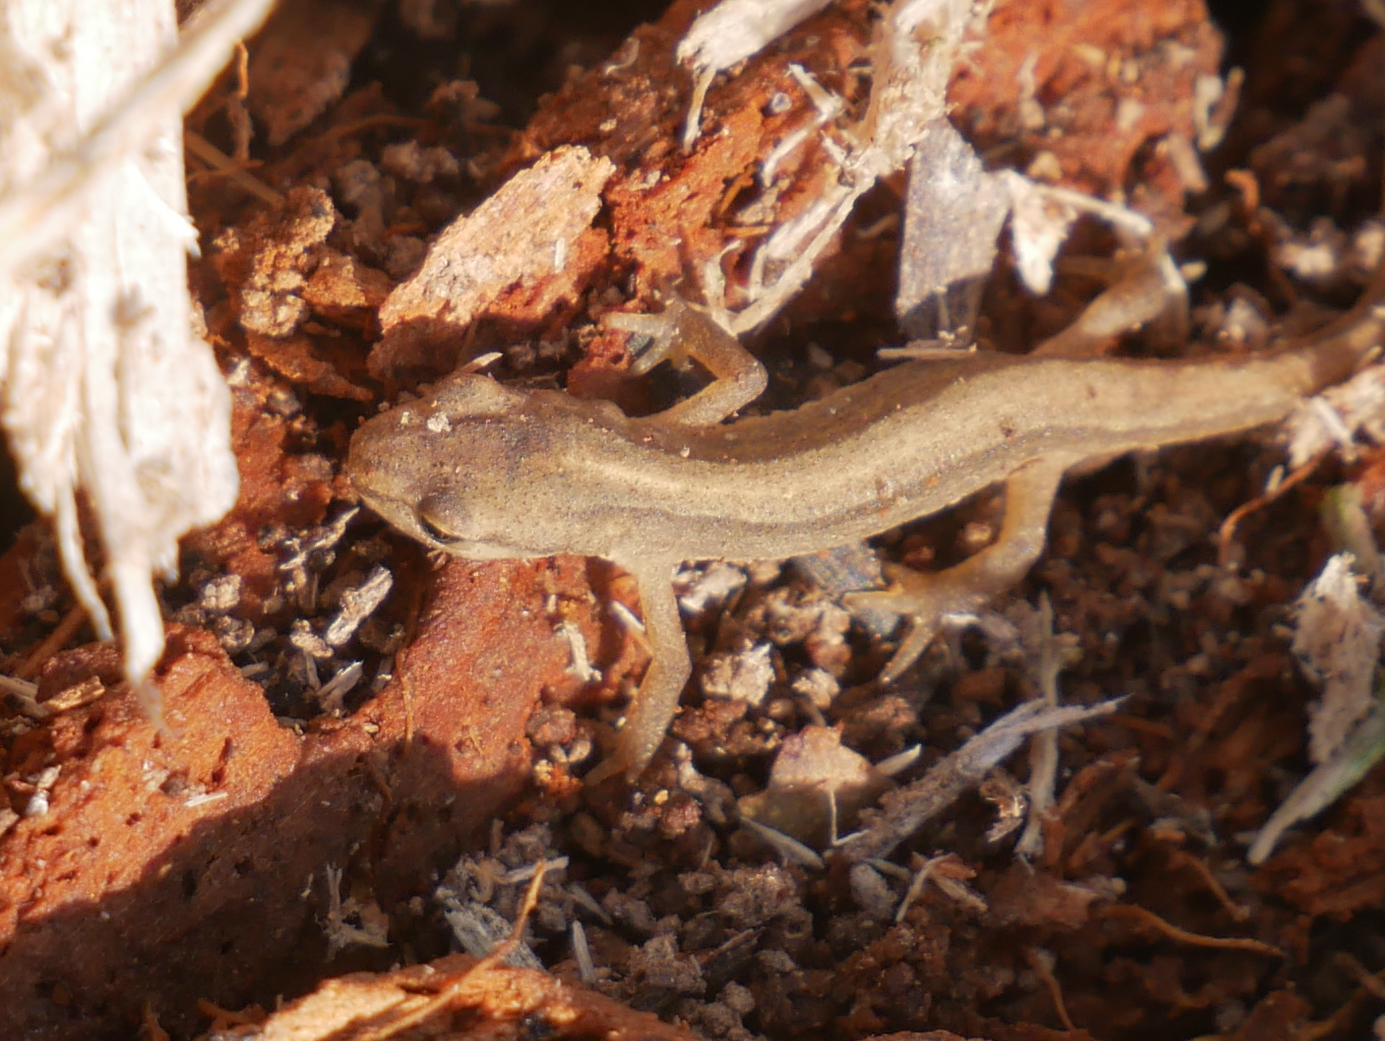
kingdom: Animalia
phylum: Chordata
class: Amphibia
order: Caudata
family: Salamandridae
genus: Lissotriton
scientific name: Lissotriton vulgaris
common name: Smooth newt
